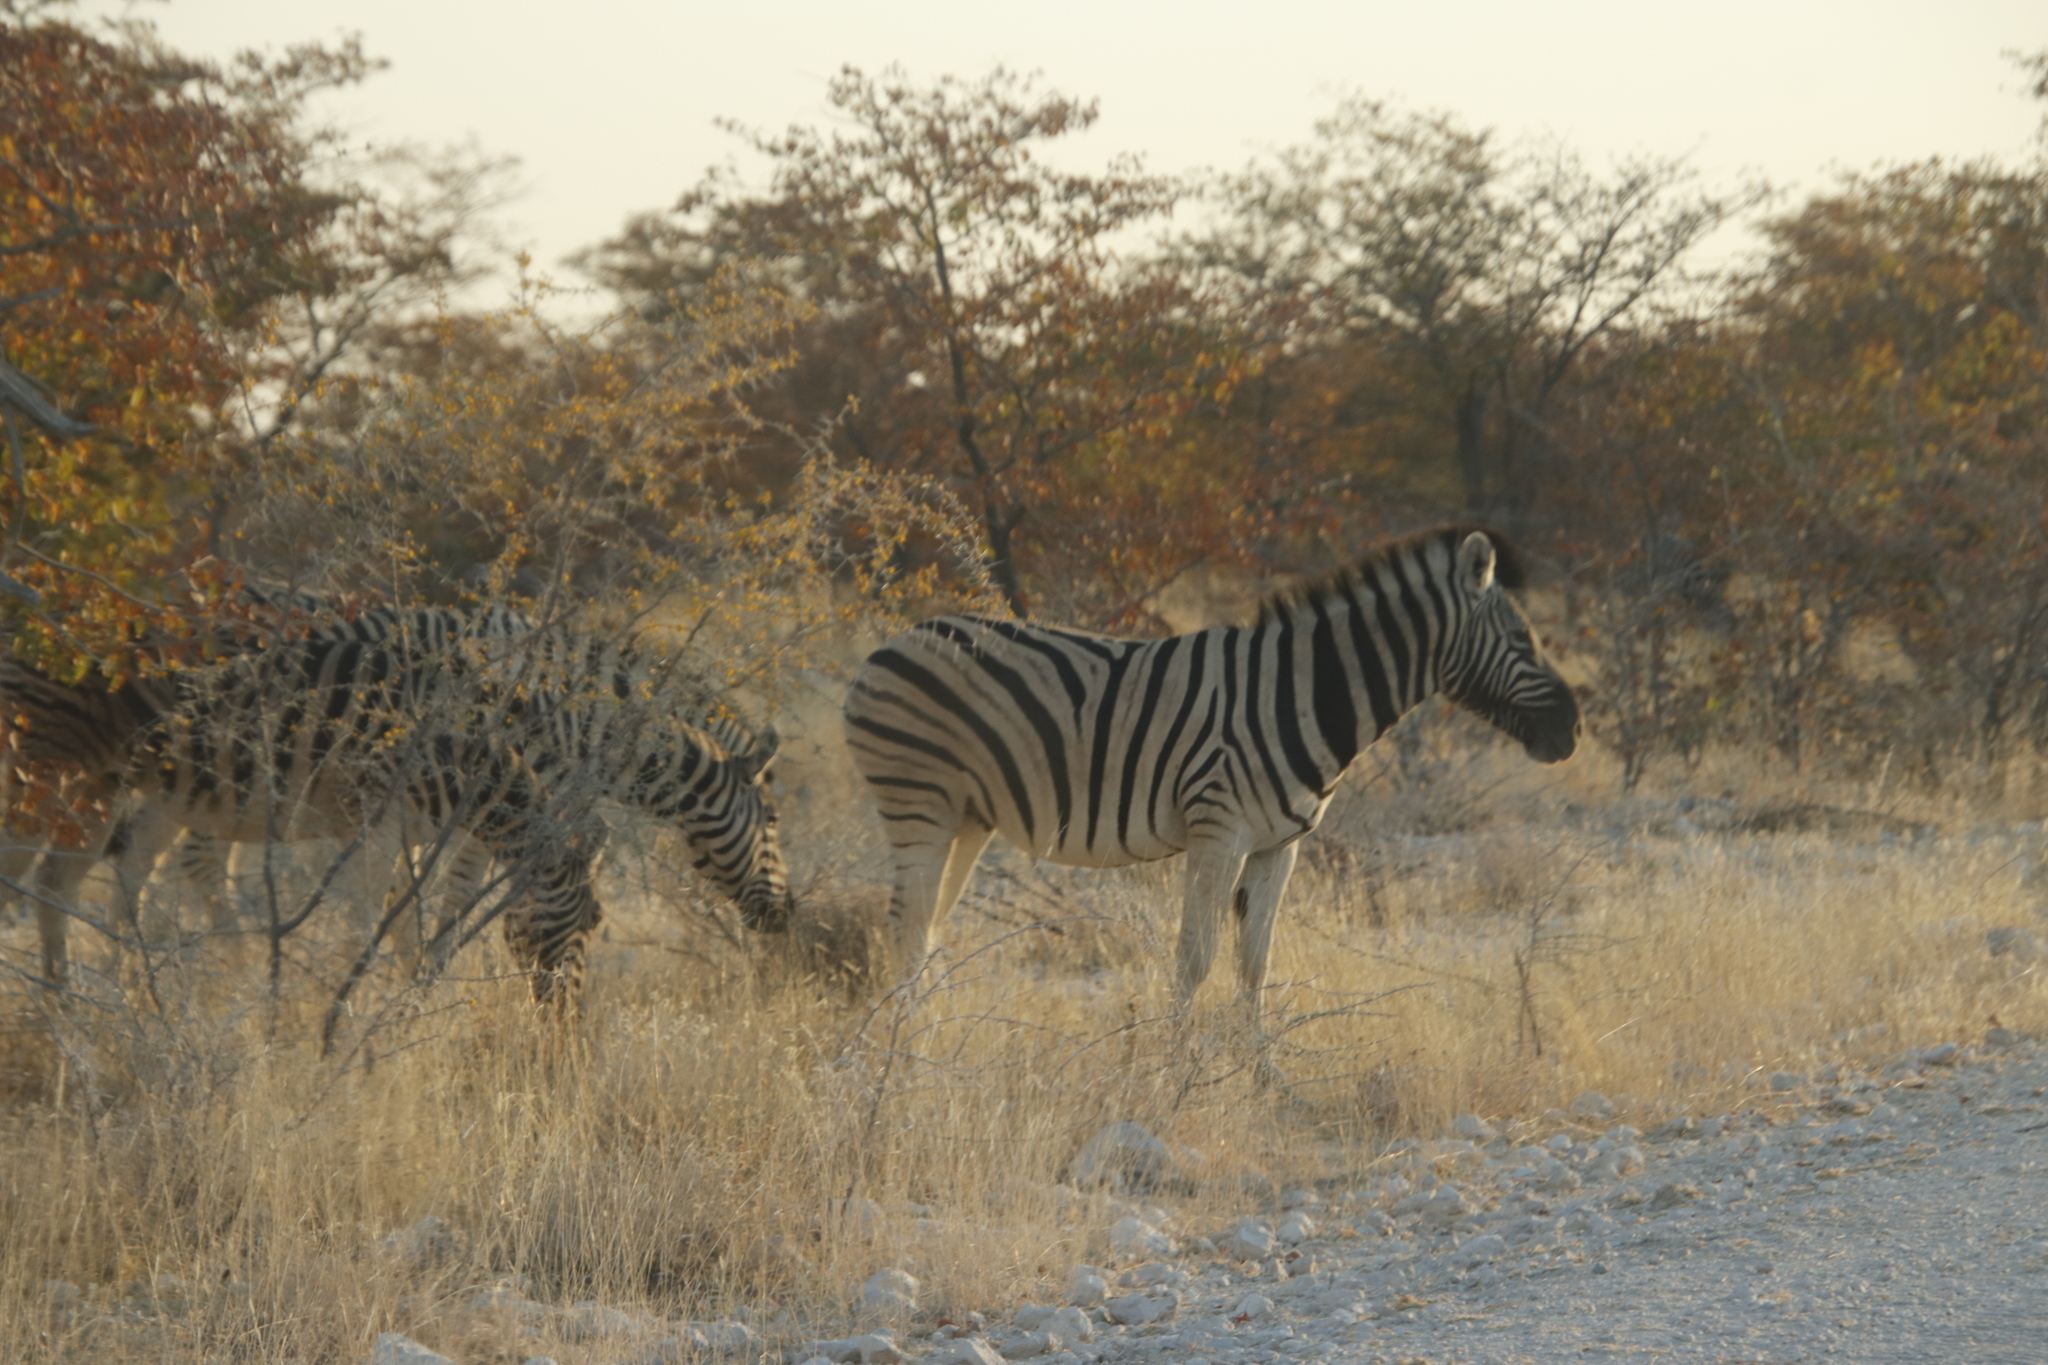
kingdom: Animalia
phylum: Chordata
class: Mammalia
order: Perissodactyla
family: Equidae
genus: Equus
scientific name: Equus quagga
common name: Plains zebra
